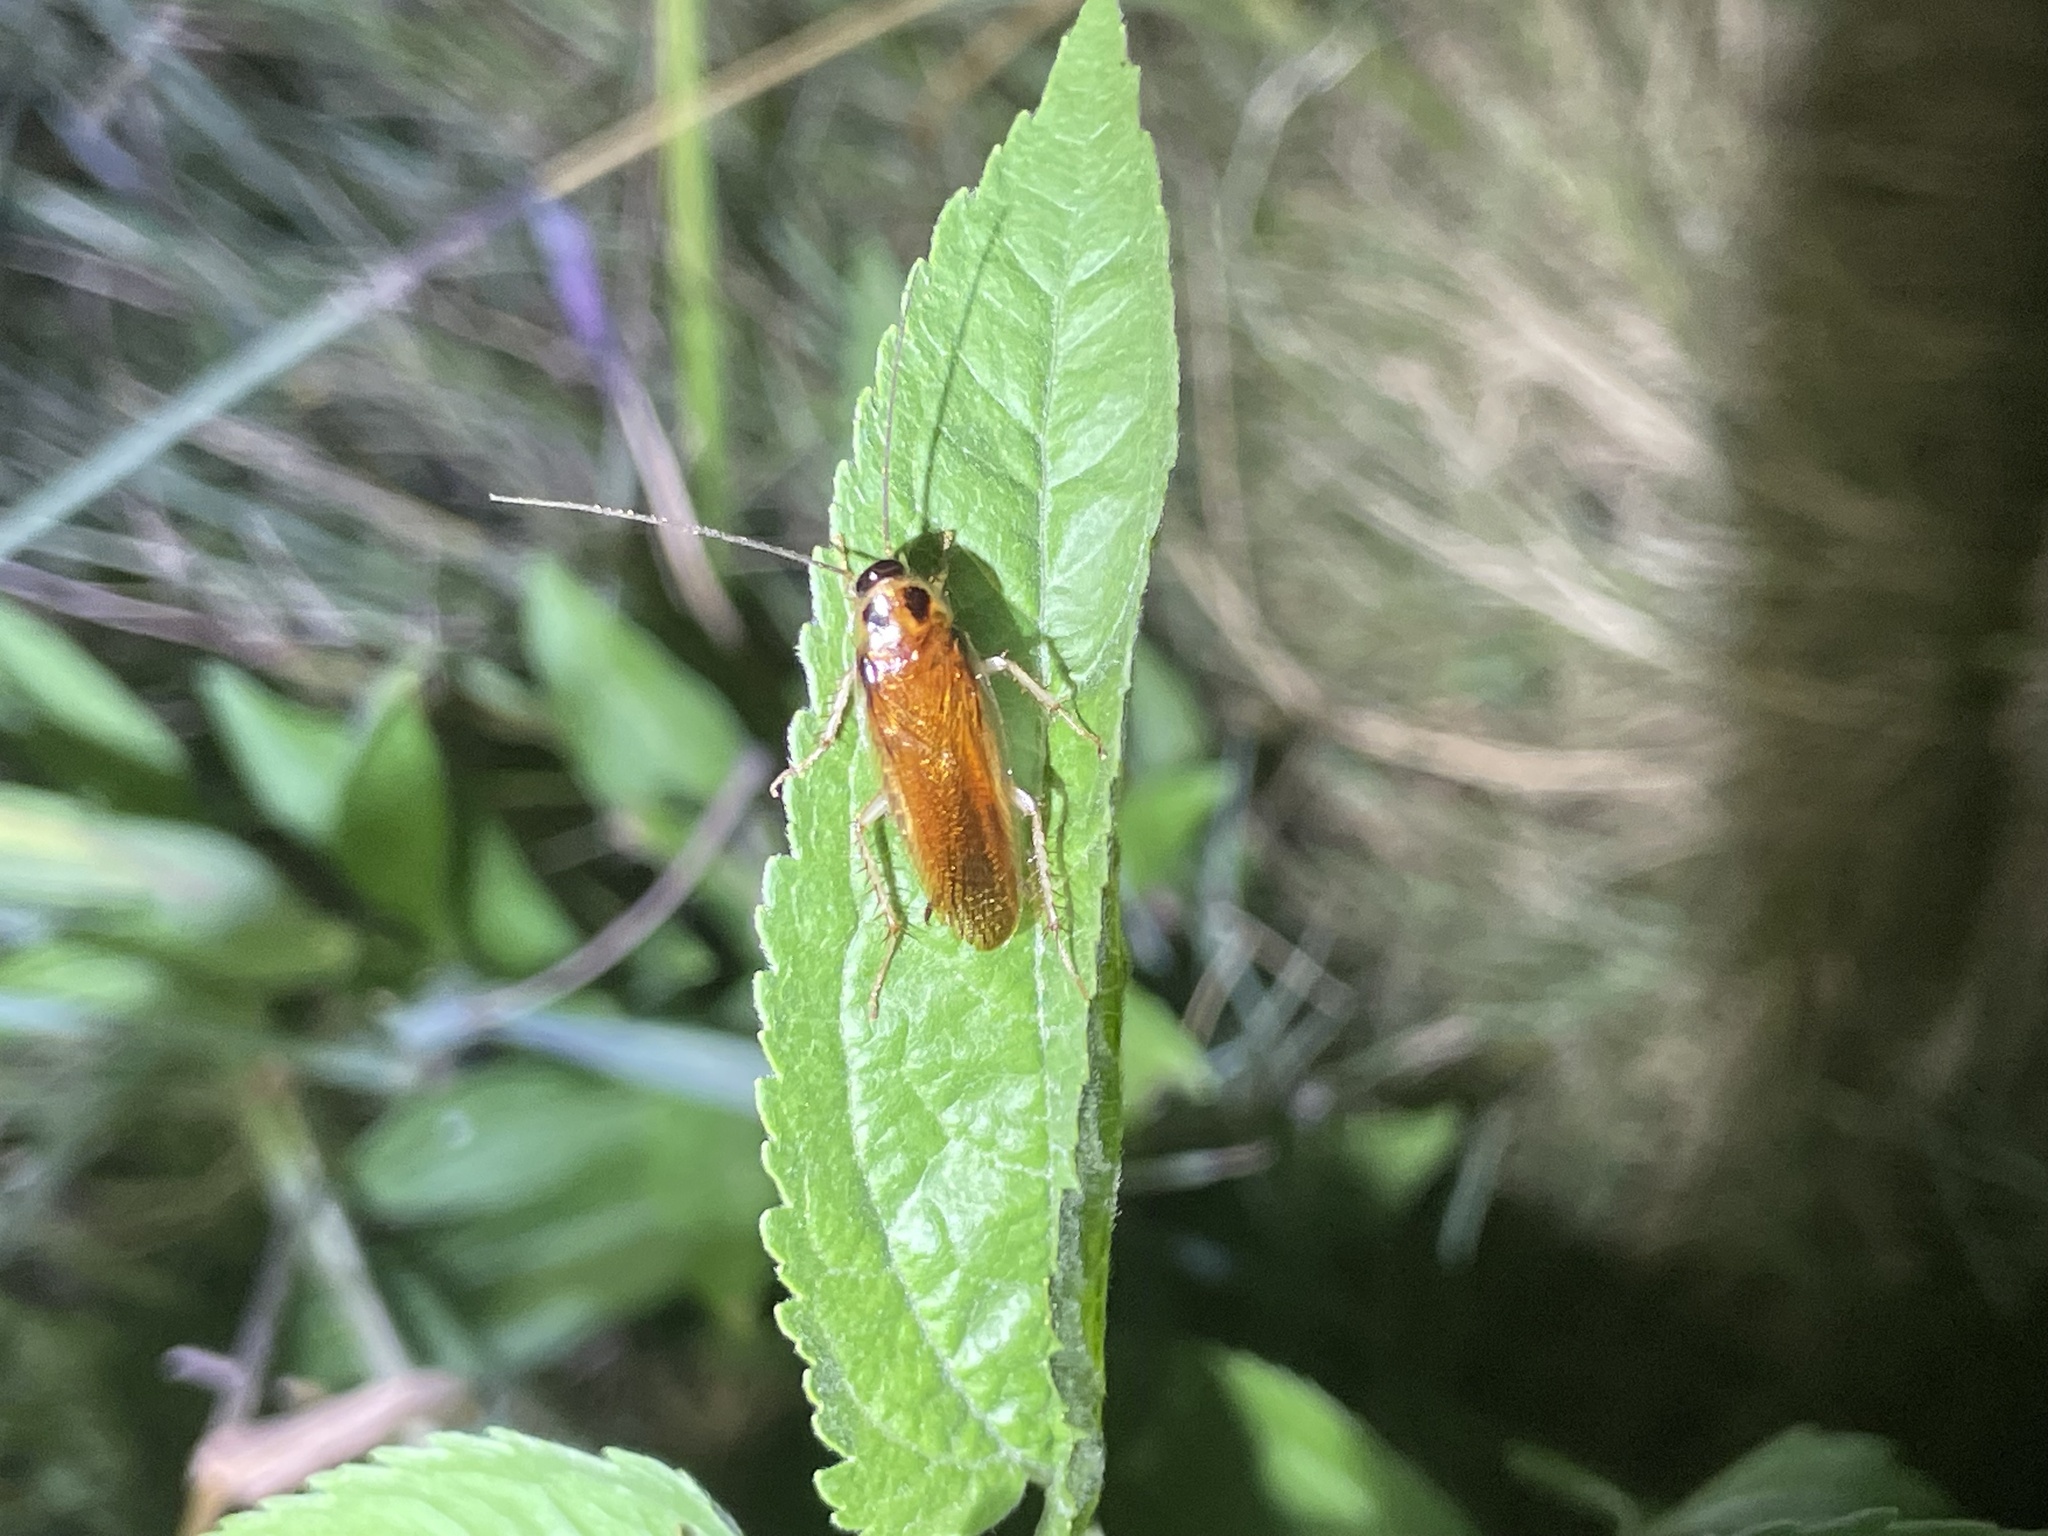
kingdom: Animalia
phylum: Arthropoda
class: Insecta
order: Blattodea
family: Ectobiidae
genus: Ischnoptera
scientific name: Ischnoptera bilunata
